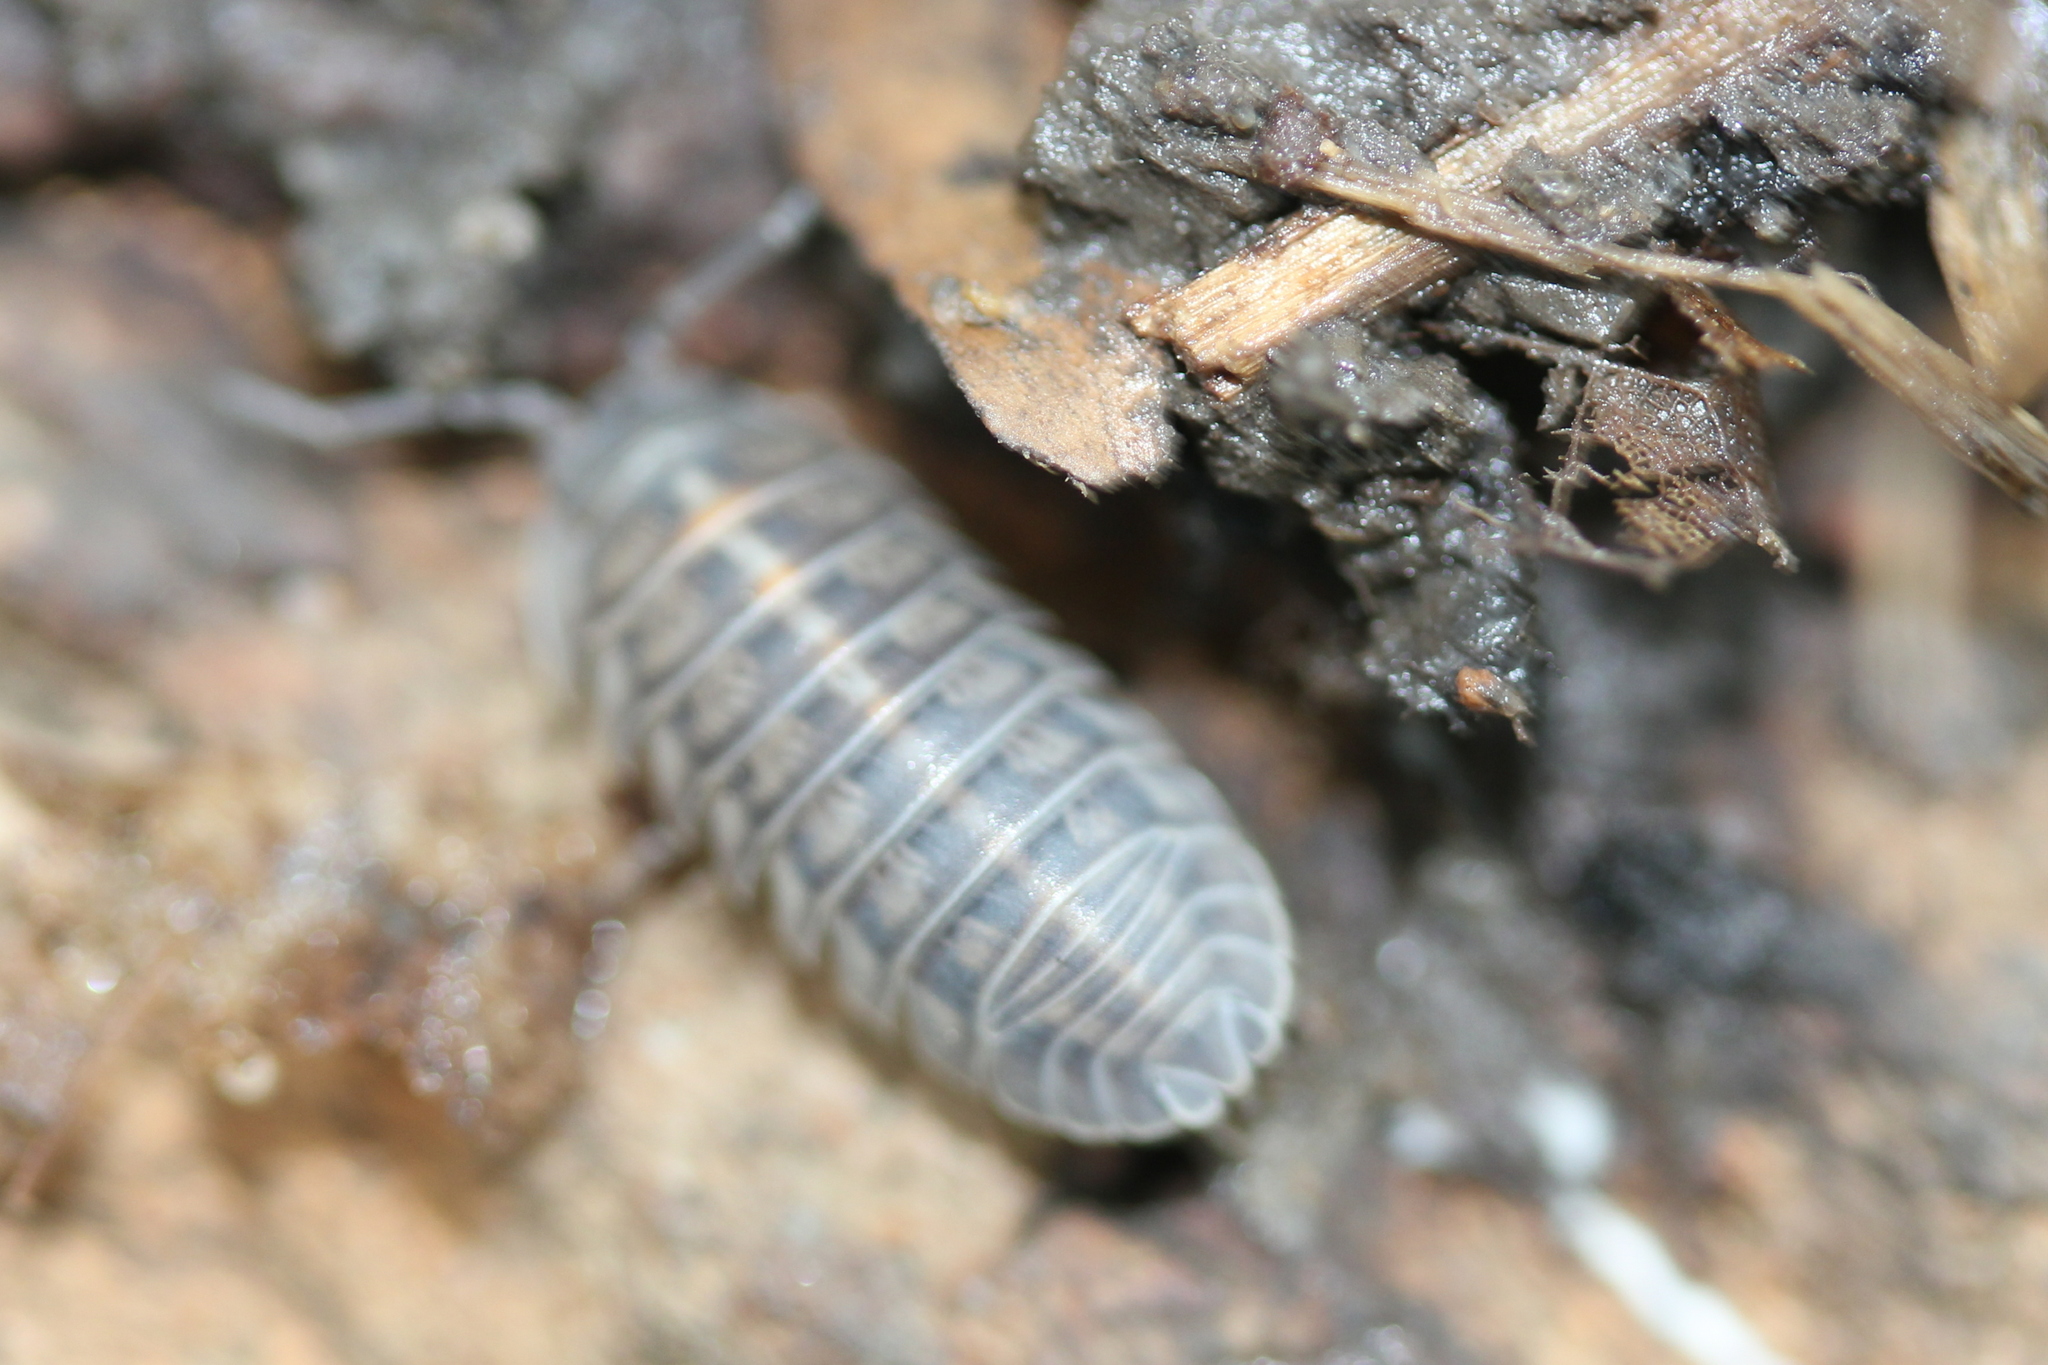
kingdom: Animalia
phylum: Arthropoda
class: Malacostraca
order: Isopoda
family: Armadillidiidae
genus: Armadillidium
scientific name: Armadillidium nasatum
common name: Isopod
